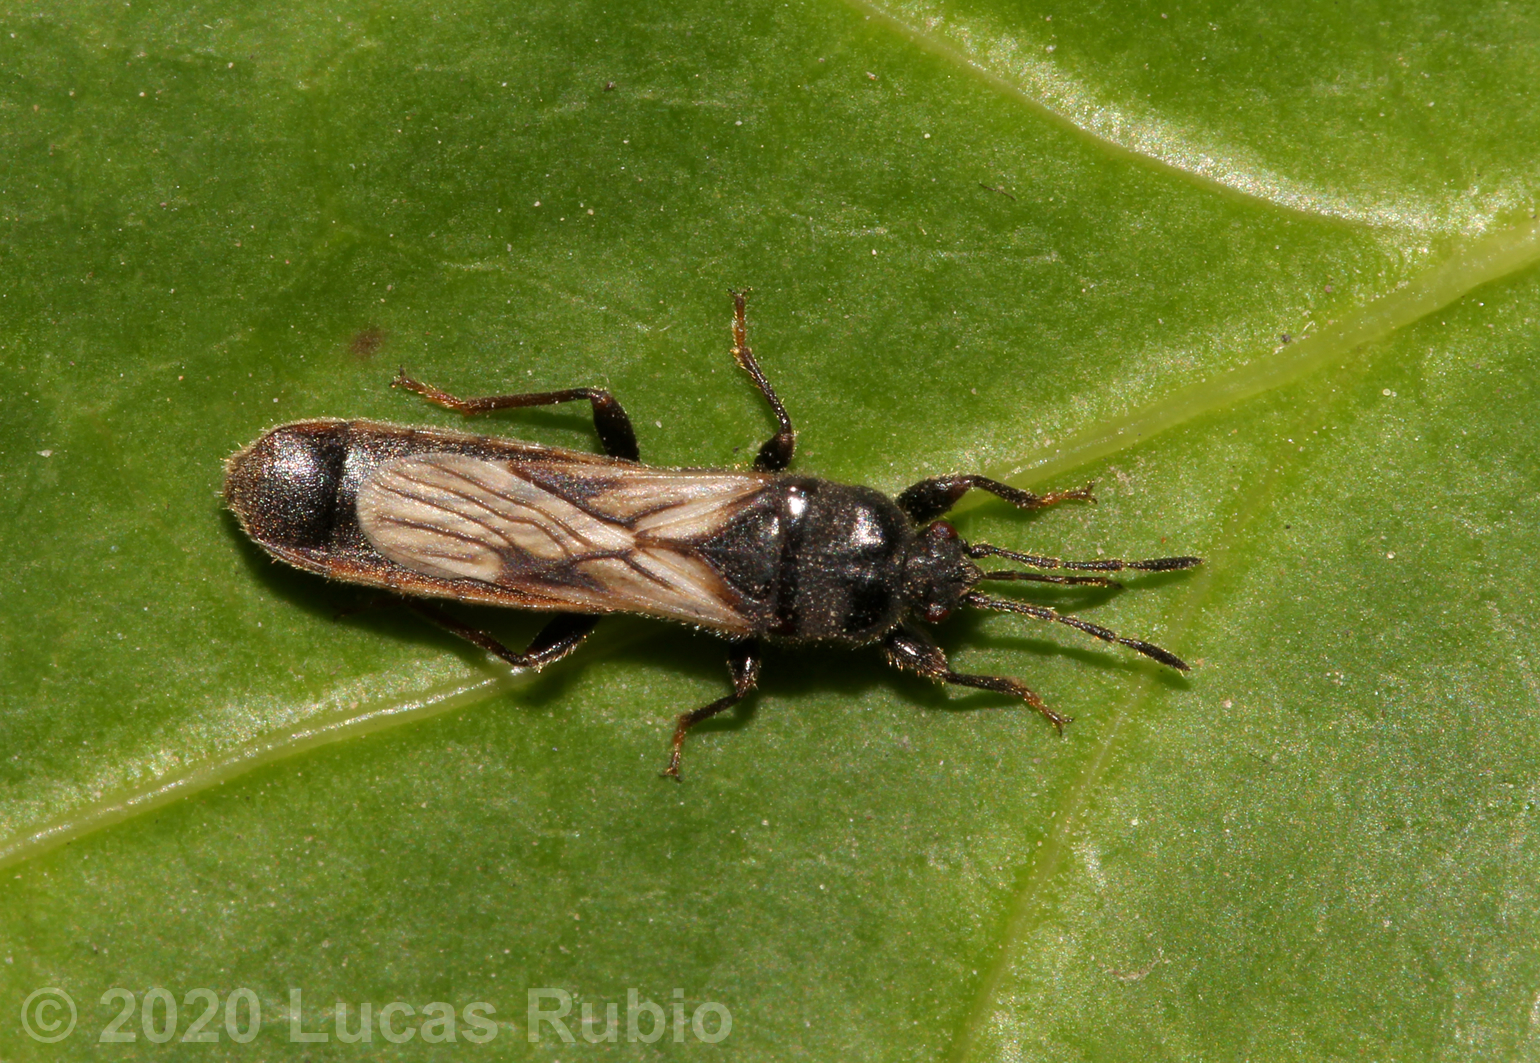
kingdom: Animalia
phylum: Arthropoda
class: Insecta
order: Hemiptera
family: Blissidae
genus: Ischnodemus
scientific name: Ischnodemus bosqi
